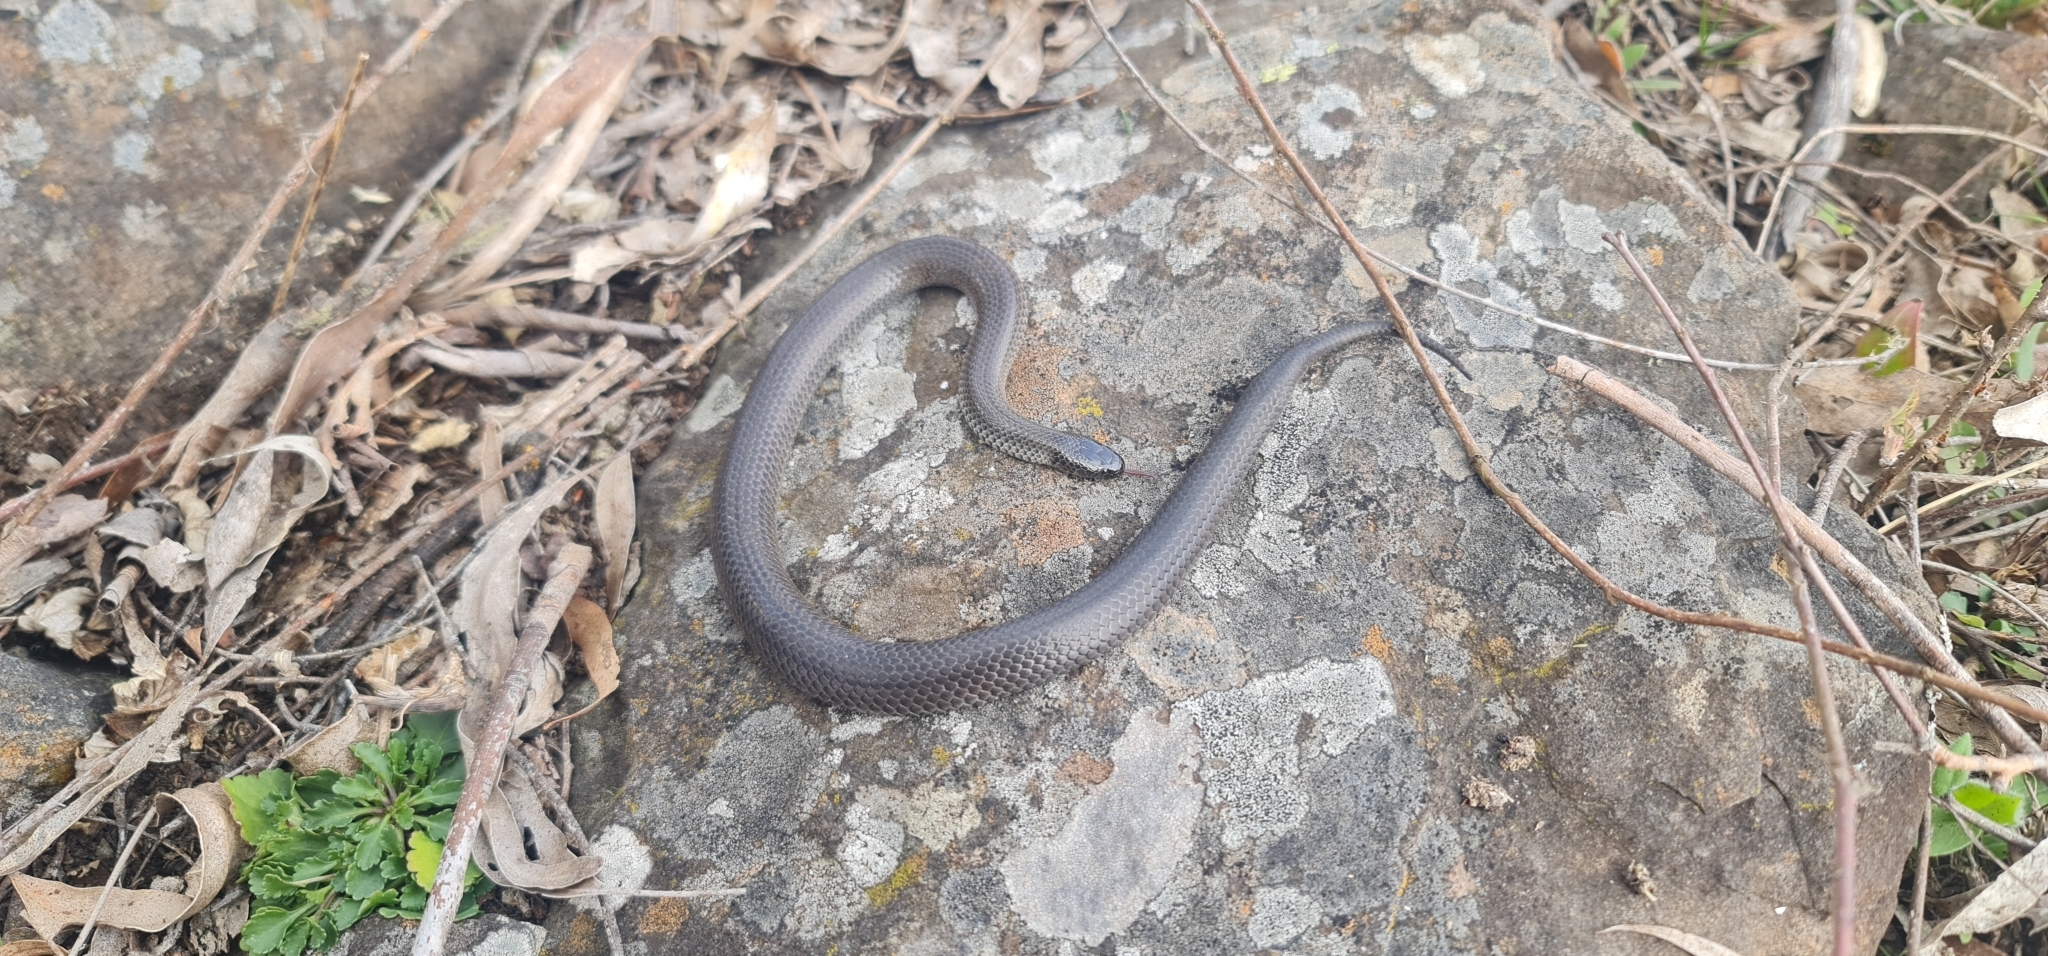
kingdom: Animalia
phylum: Chordata
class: Squamata
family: Elapidae
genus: Cryptophis
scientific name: Cryptophis nigrescens
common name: Eastern small-eyed snake
